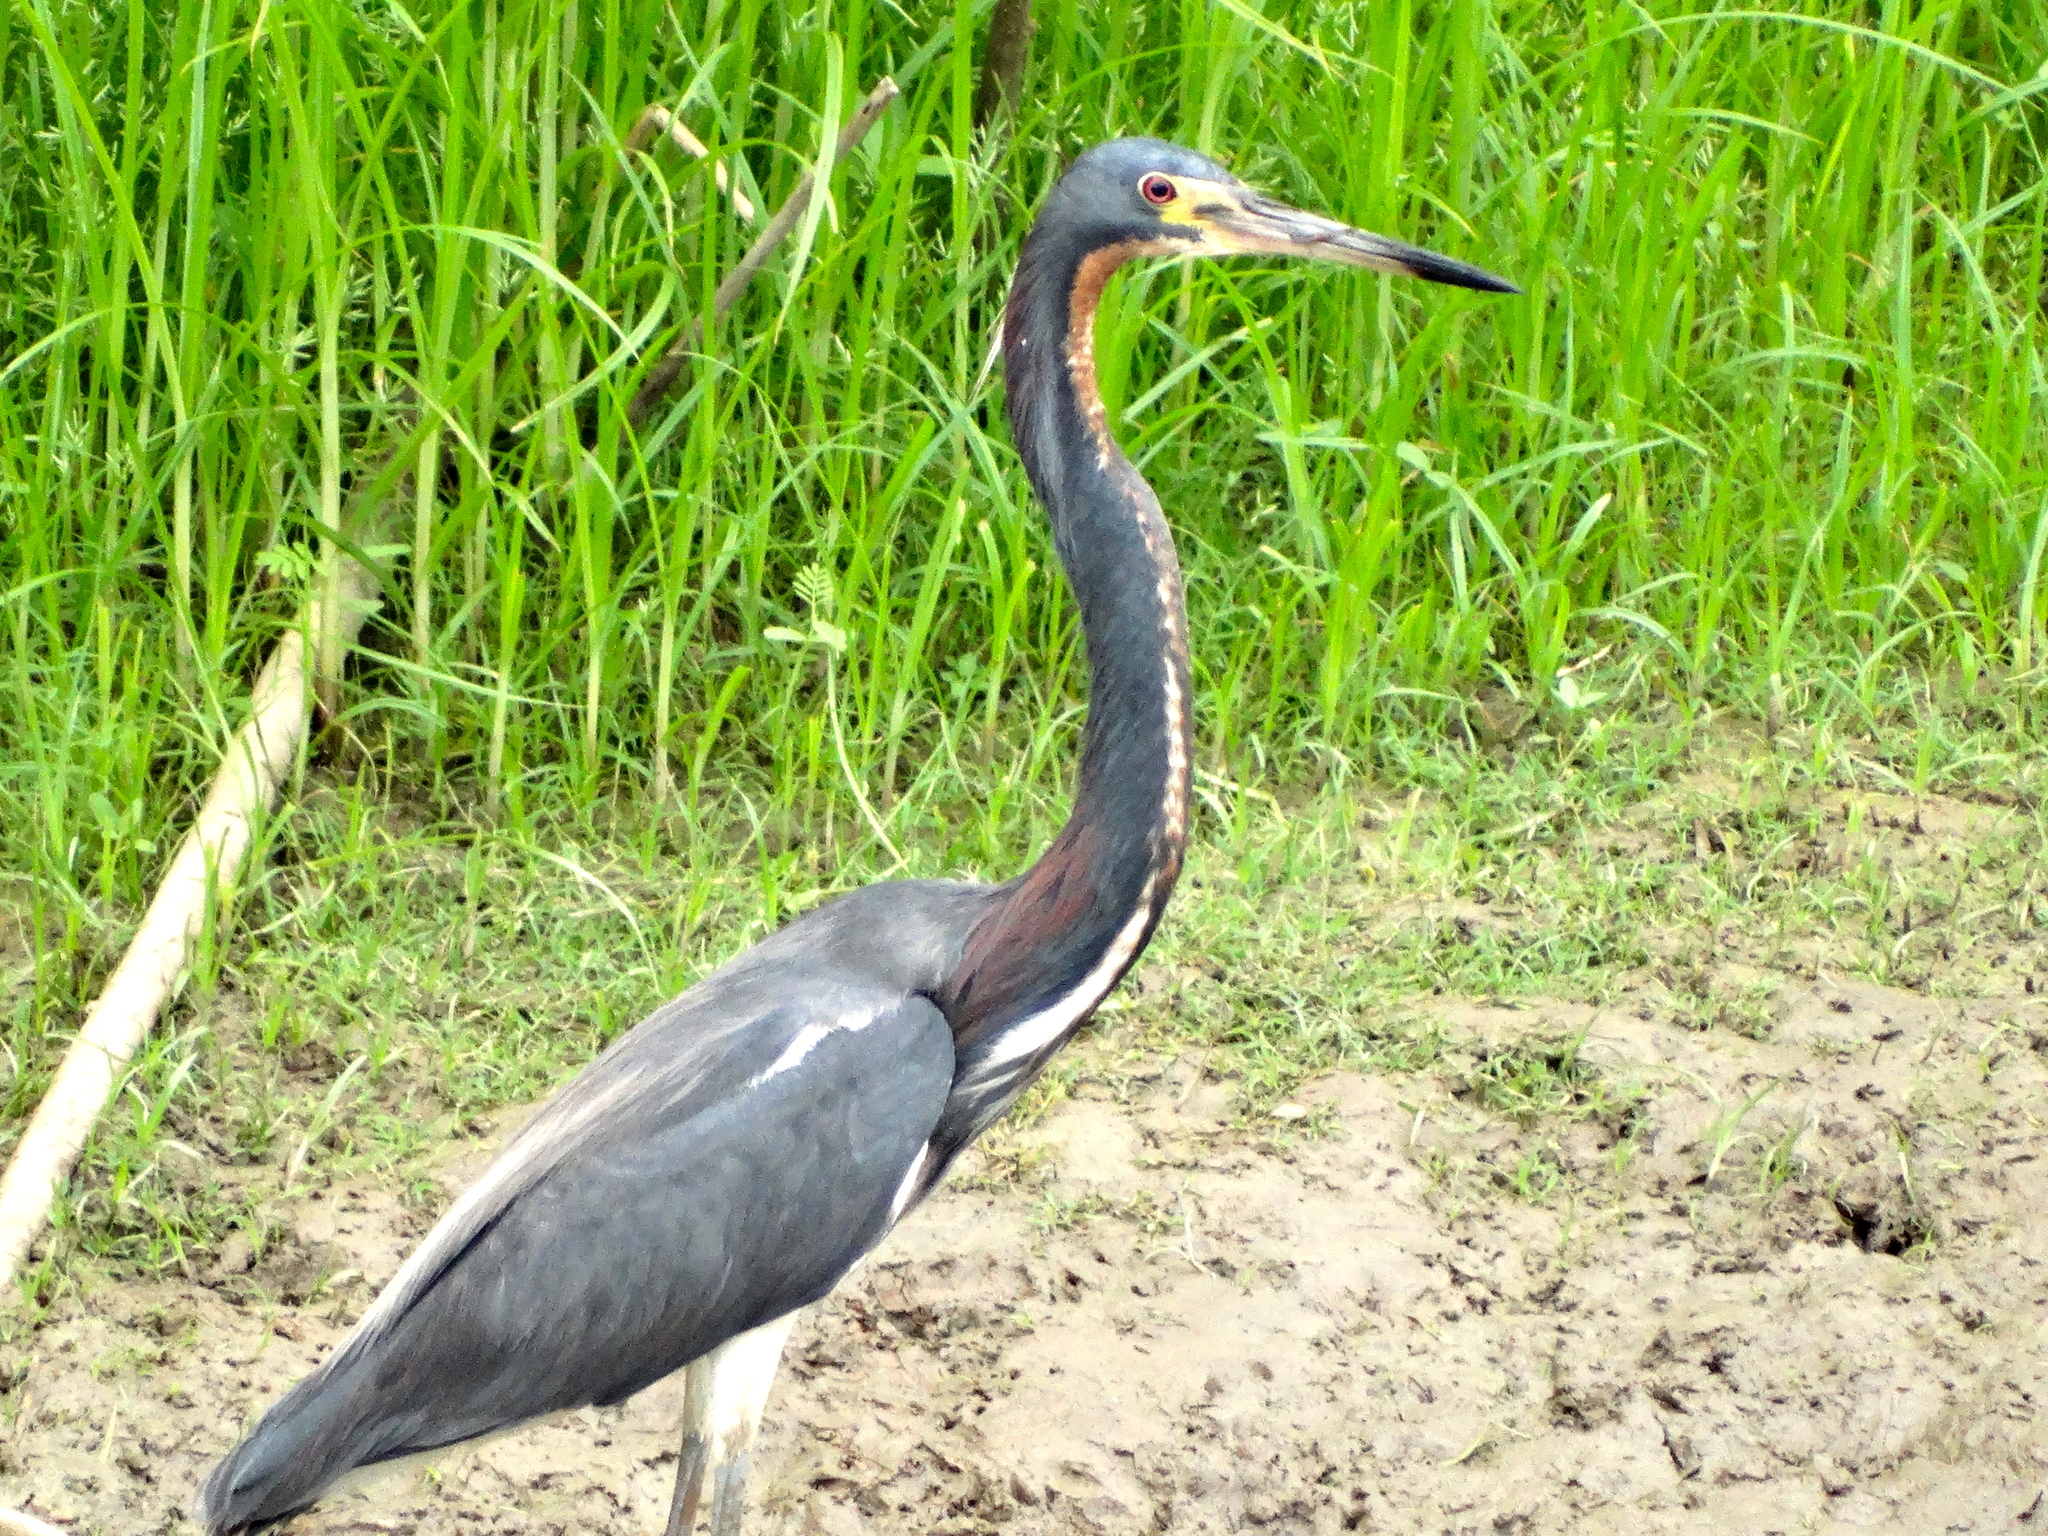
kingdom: Animalia
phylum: Chordata
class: Aves
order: Pelecaniformes
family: Ardeidae
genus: Egretta
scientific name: Egretta tricolor
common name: Tricolored heron
